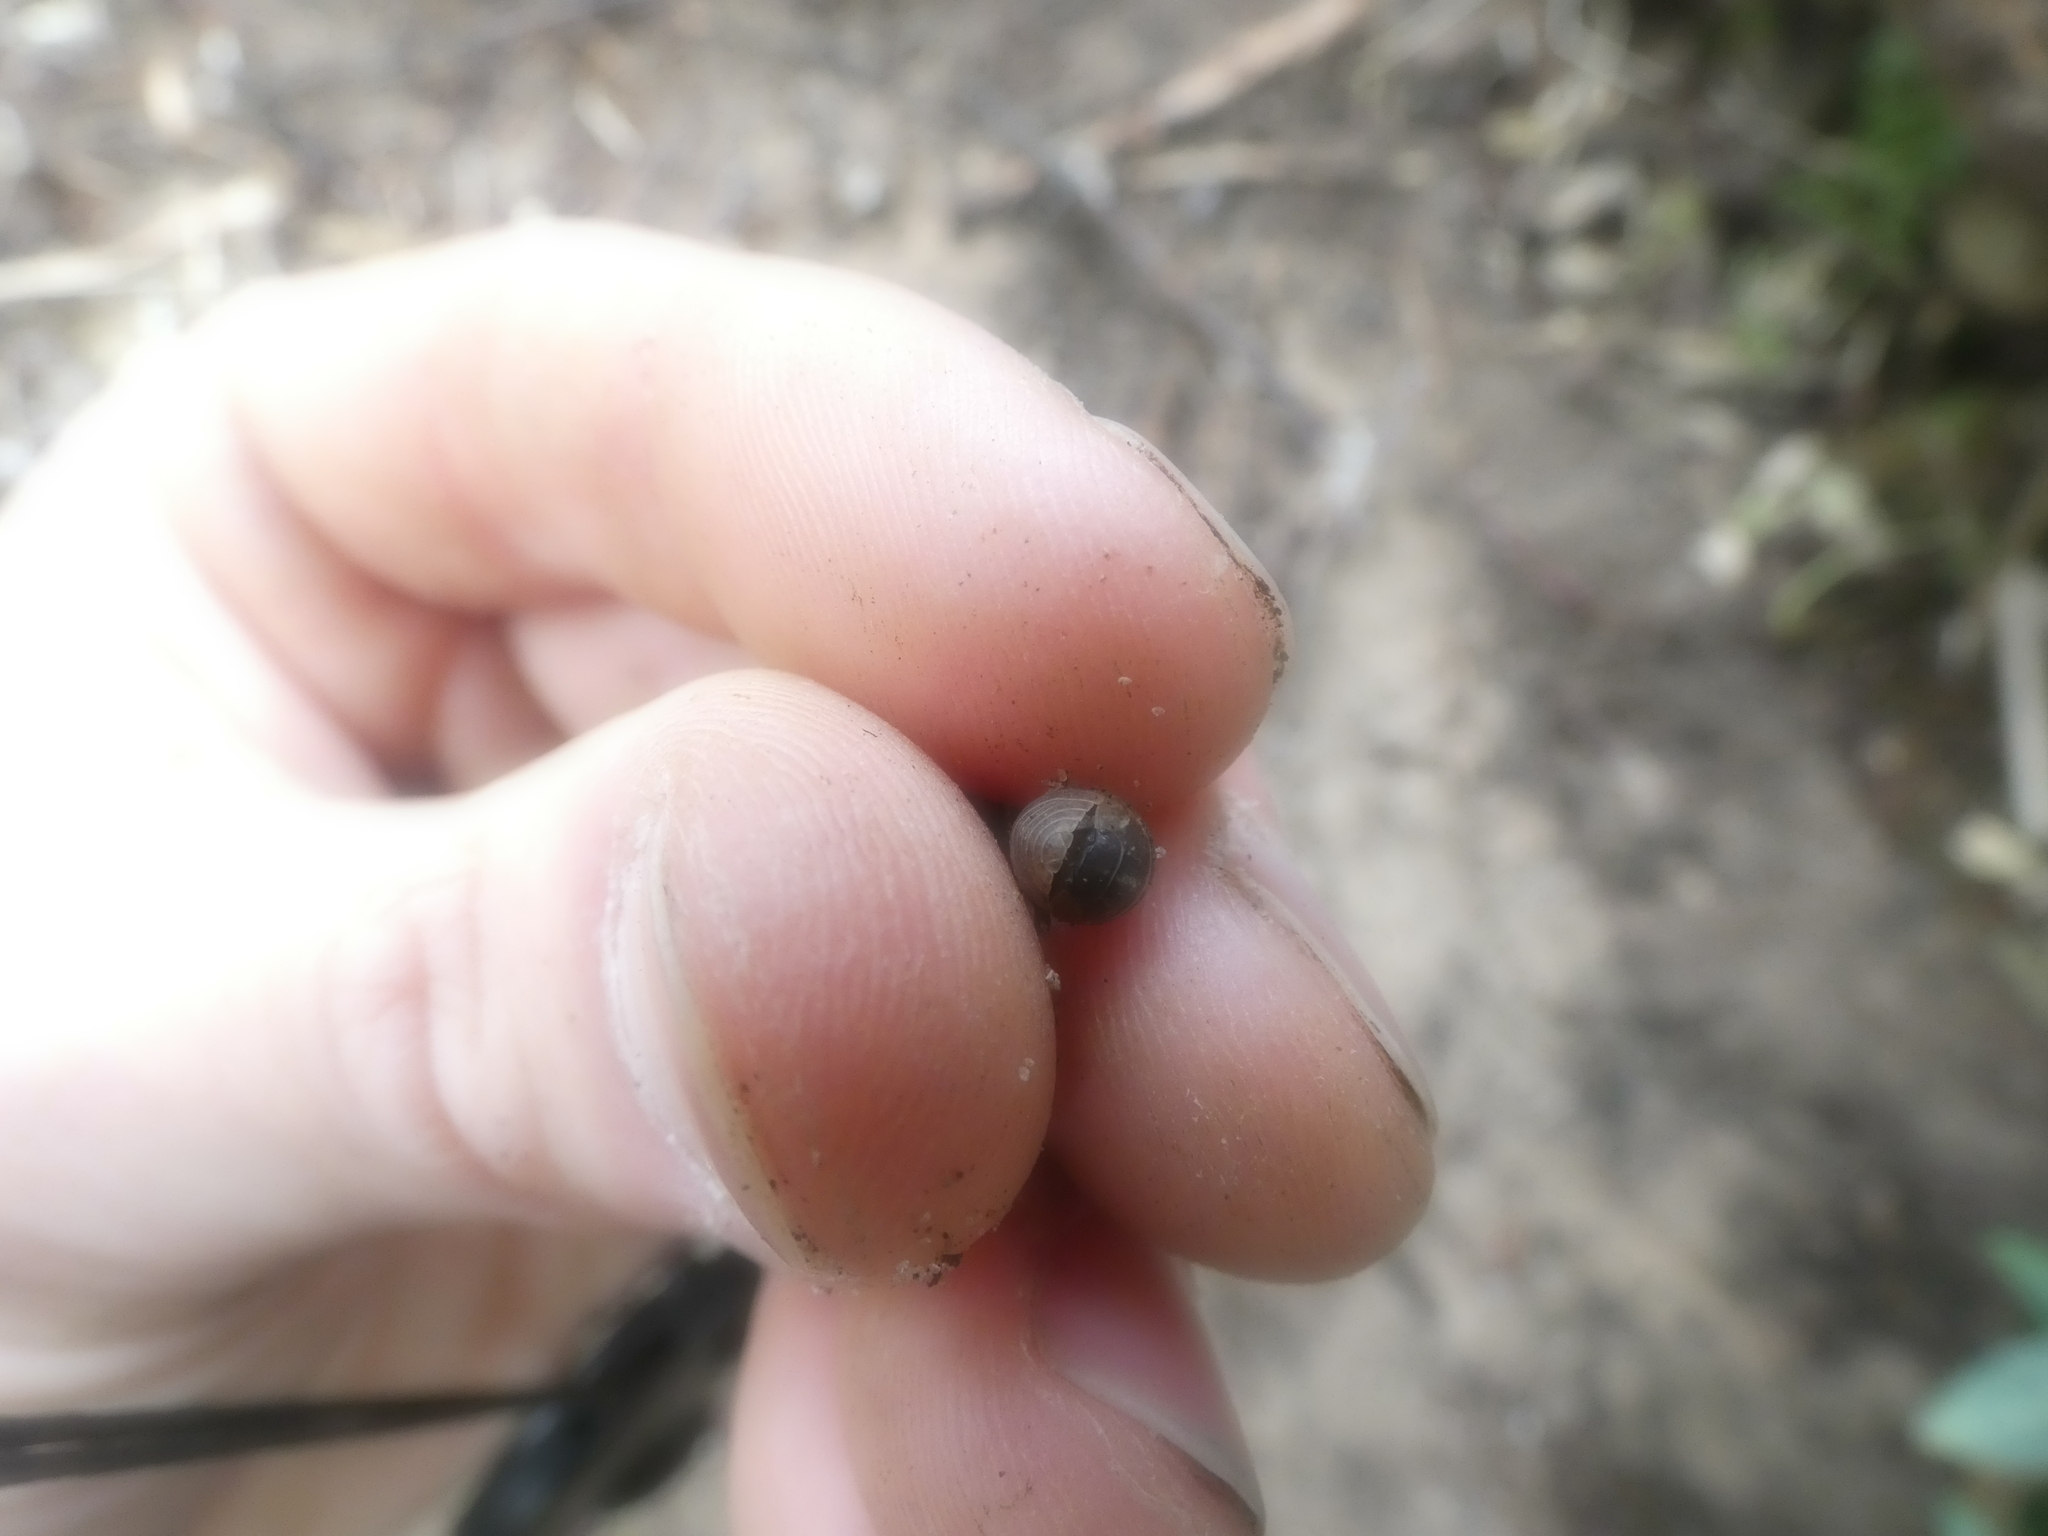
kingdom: Animalia
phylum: Arthropoda
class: Malacostraca
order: Isopoda
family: Armadillidiidae
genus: Armadillidium
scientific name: Armadillidium vulgare
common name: Common pill woodlouse
